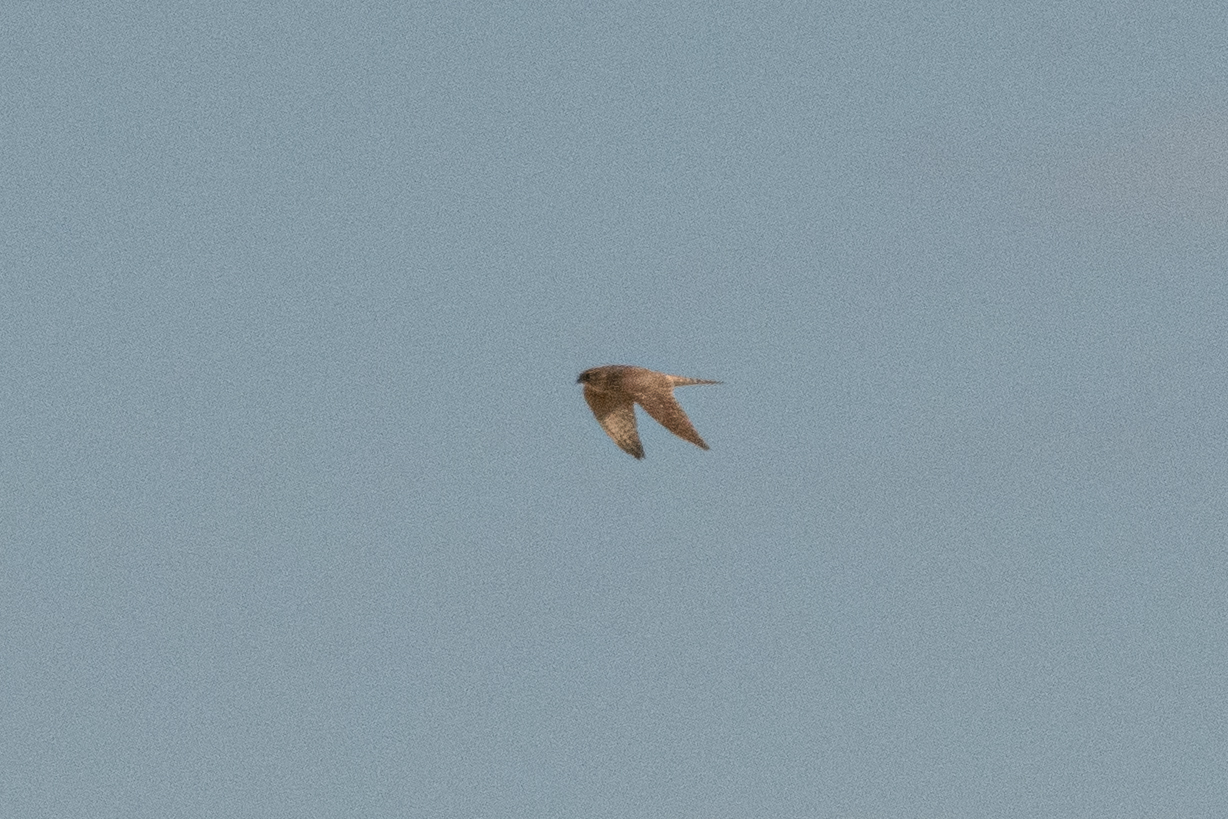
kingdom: Animalia
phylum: Chordata
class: Aves
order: Falconiformes
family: Falconidae
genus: Falco
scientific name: Falco columbarius
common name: Merlin
